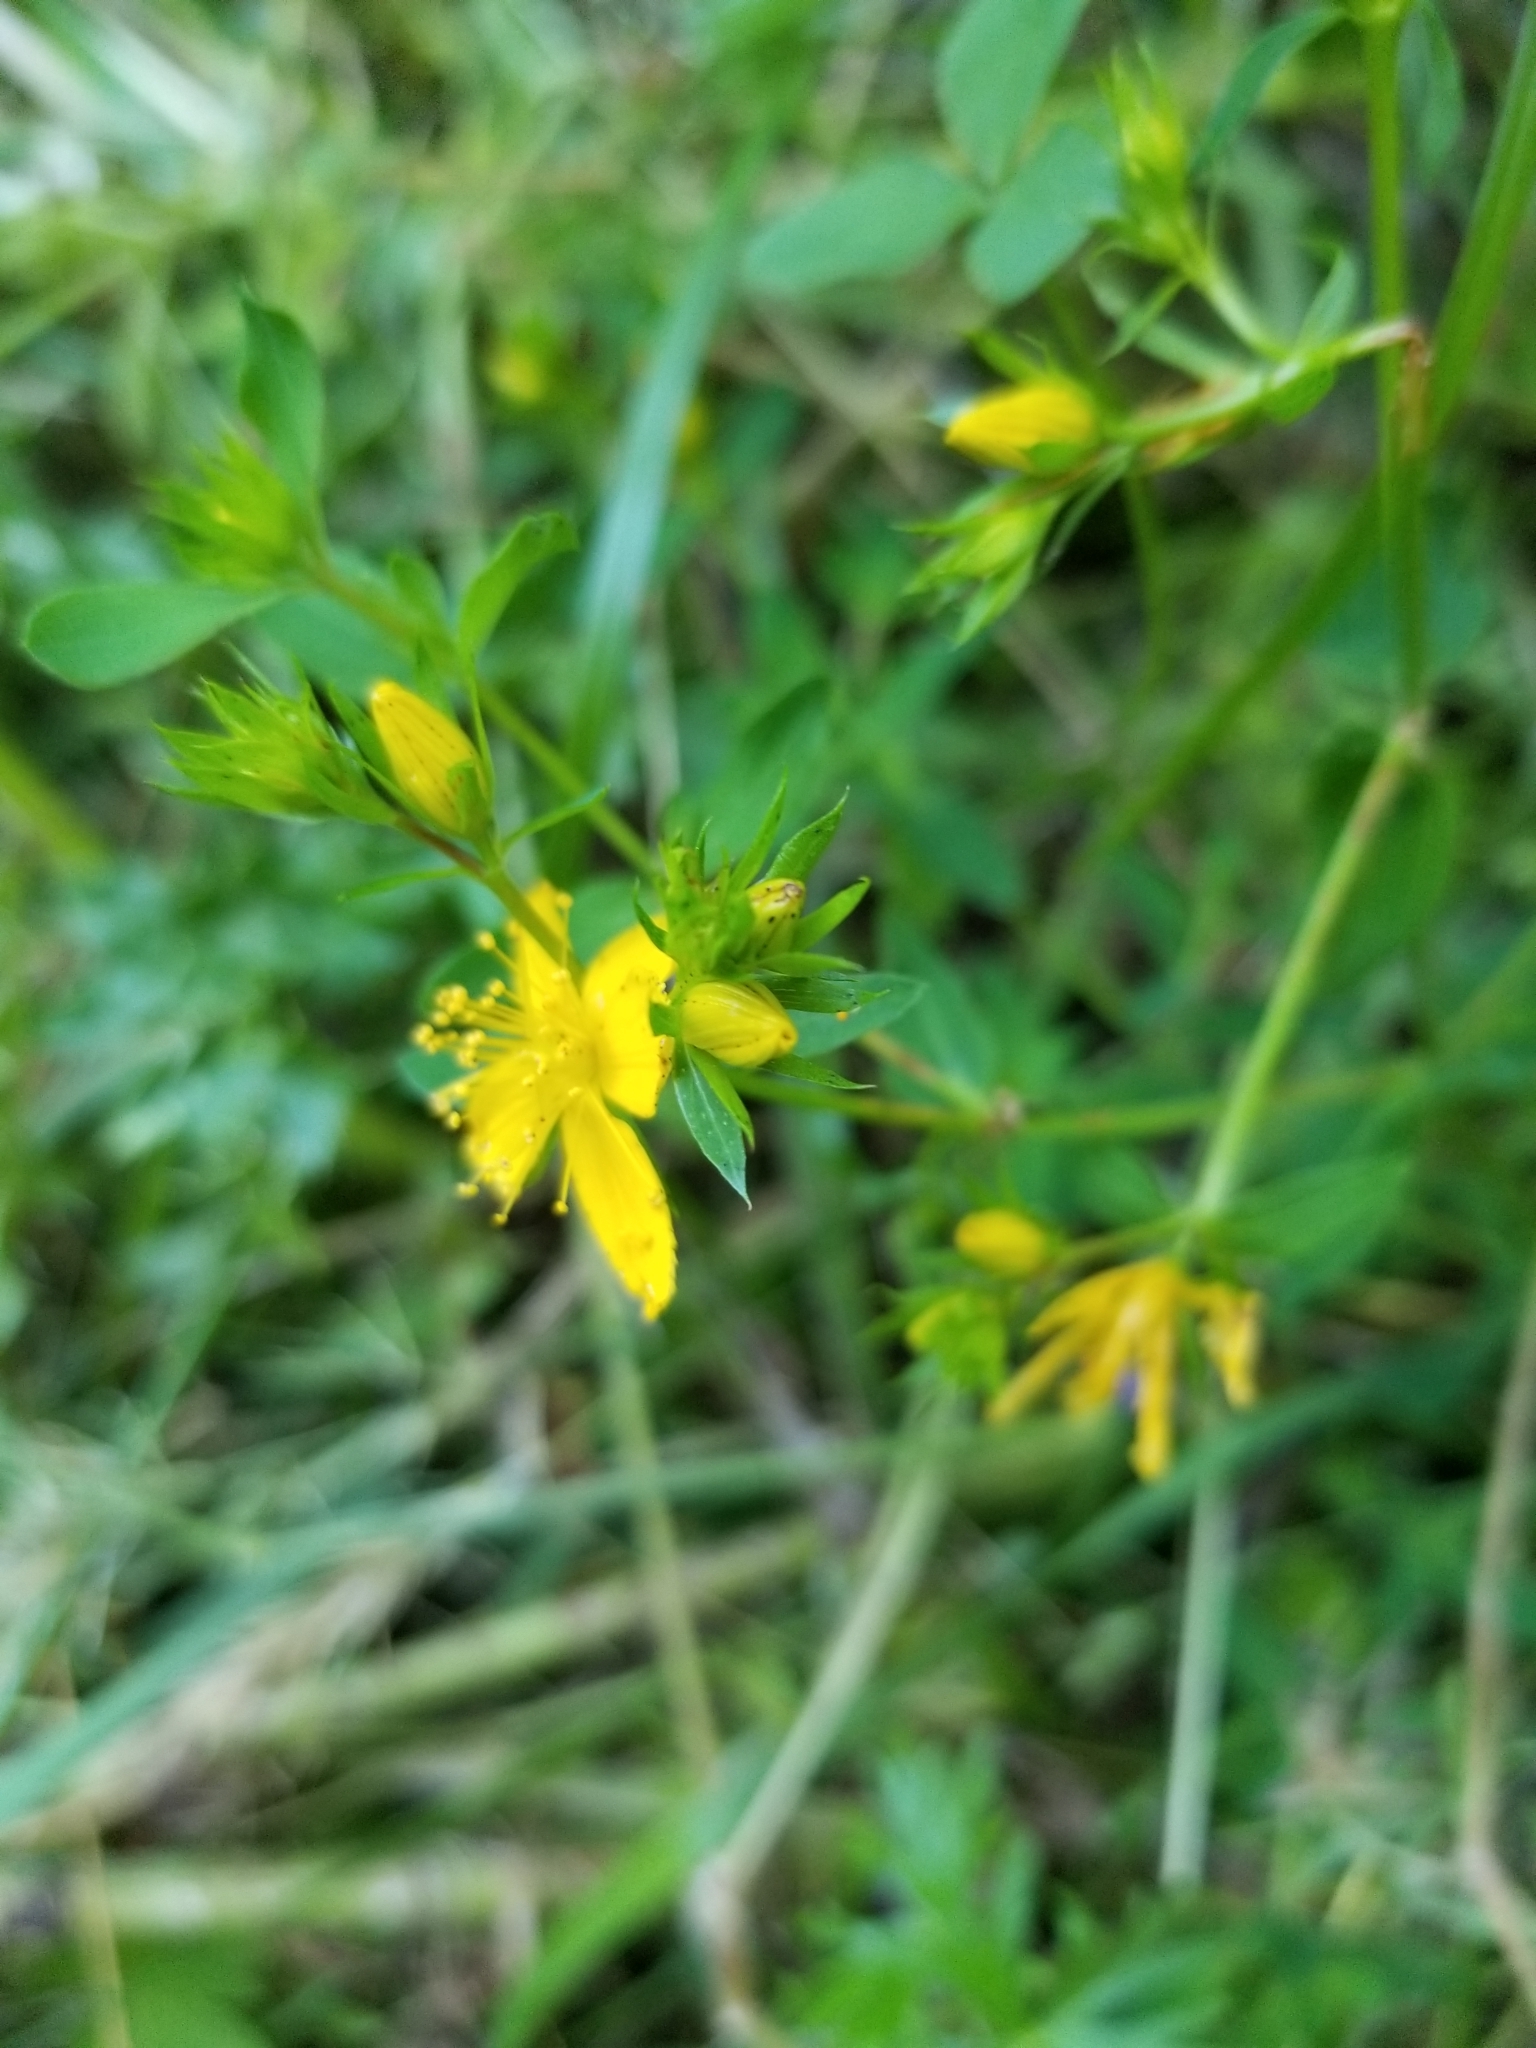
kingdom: Plantae
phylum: Tracheophyta
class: Magnoliopsida
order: Malpighiales
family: Hypericaceae
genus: Hypericum
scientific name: Hypericum perforatum
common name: Common st. johnswort
